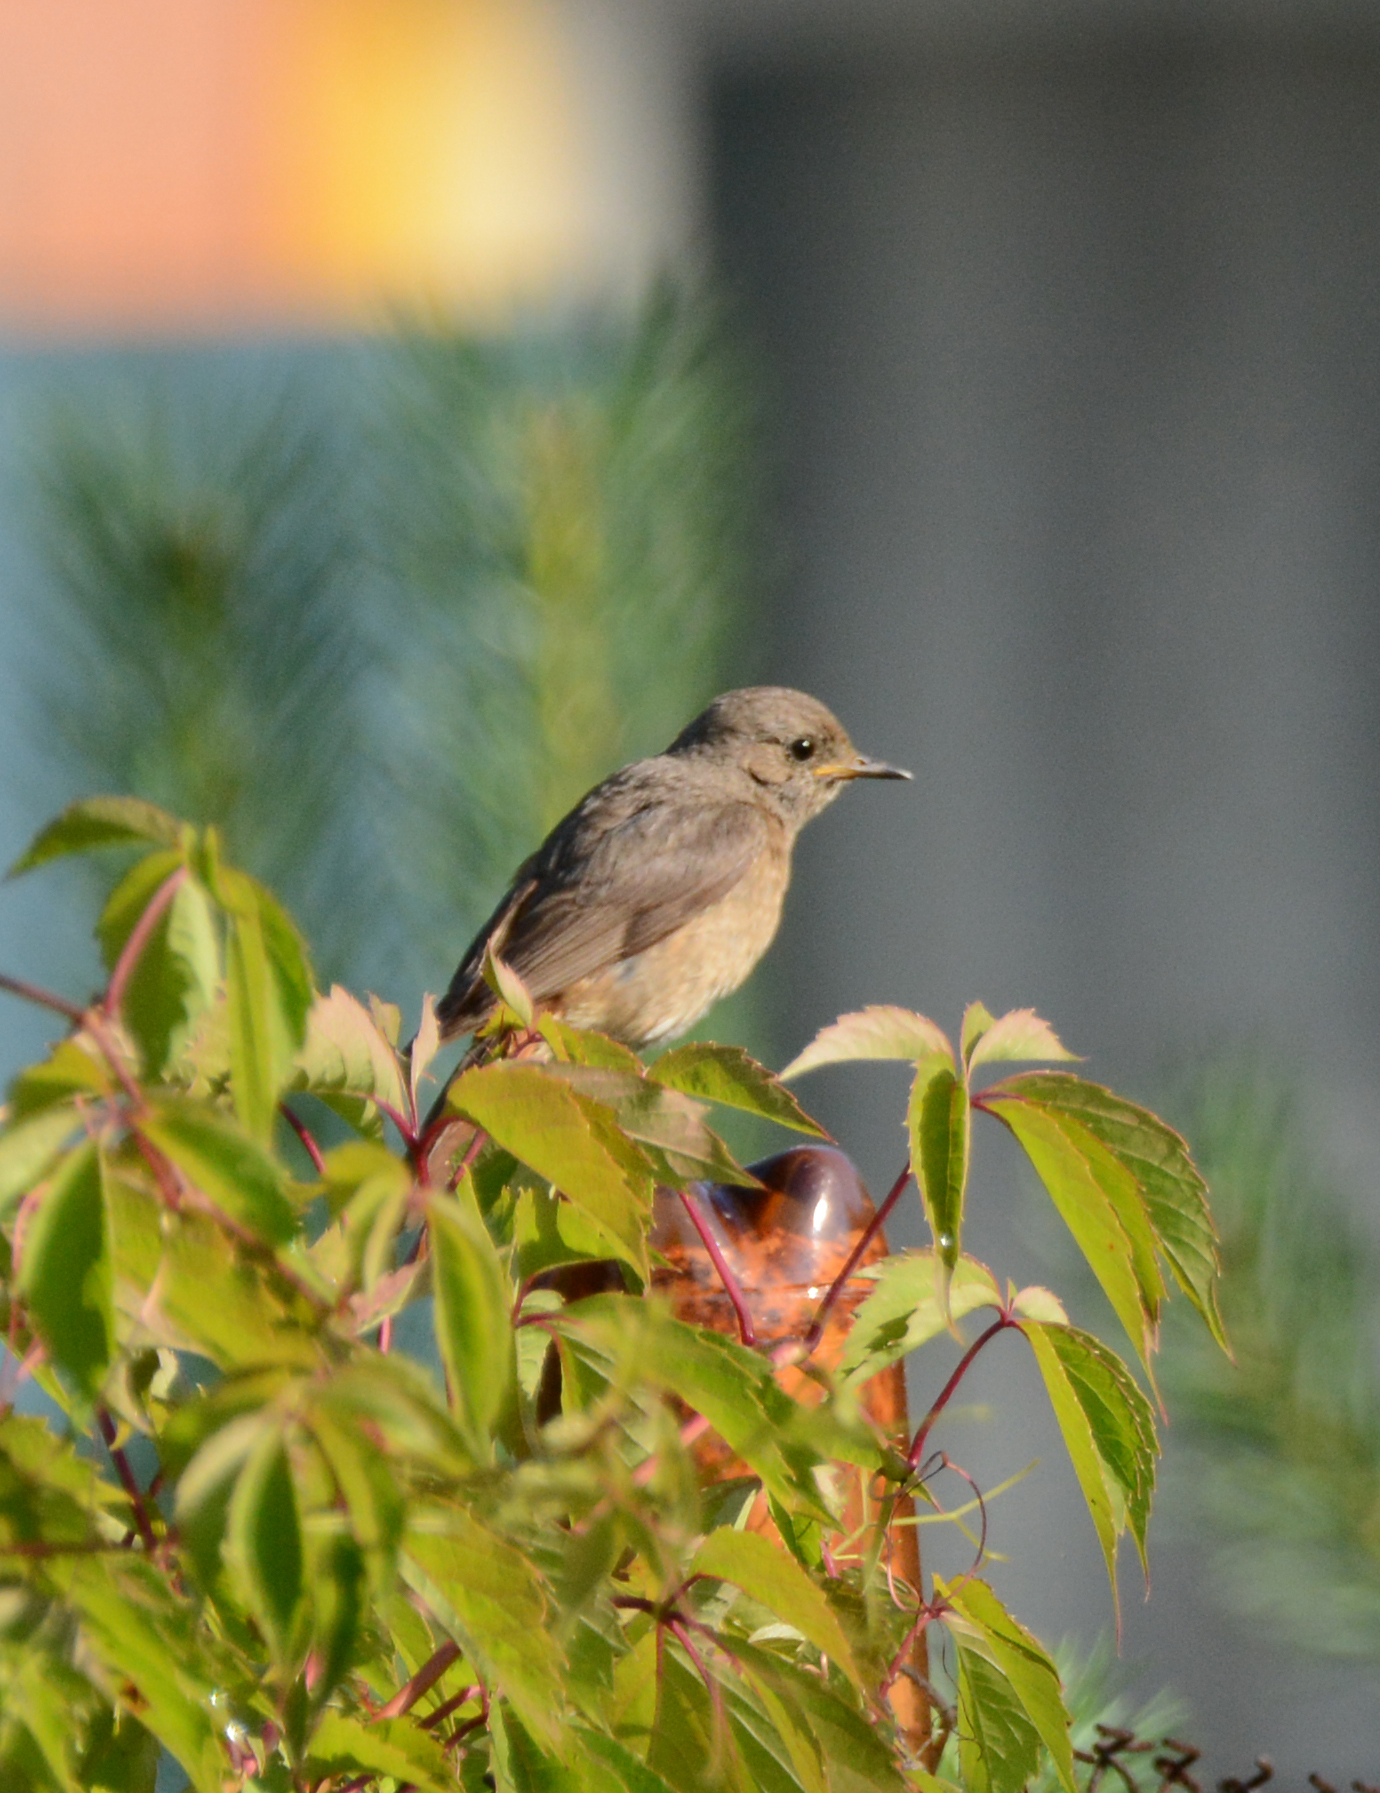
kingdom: Animalia
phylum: Chordata
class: Aves
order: Passeriformes
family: Muscicapidae
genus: Phoenicurus
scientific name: Phoenicurus phoenicurus
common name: Common redstart
